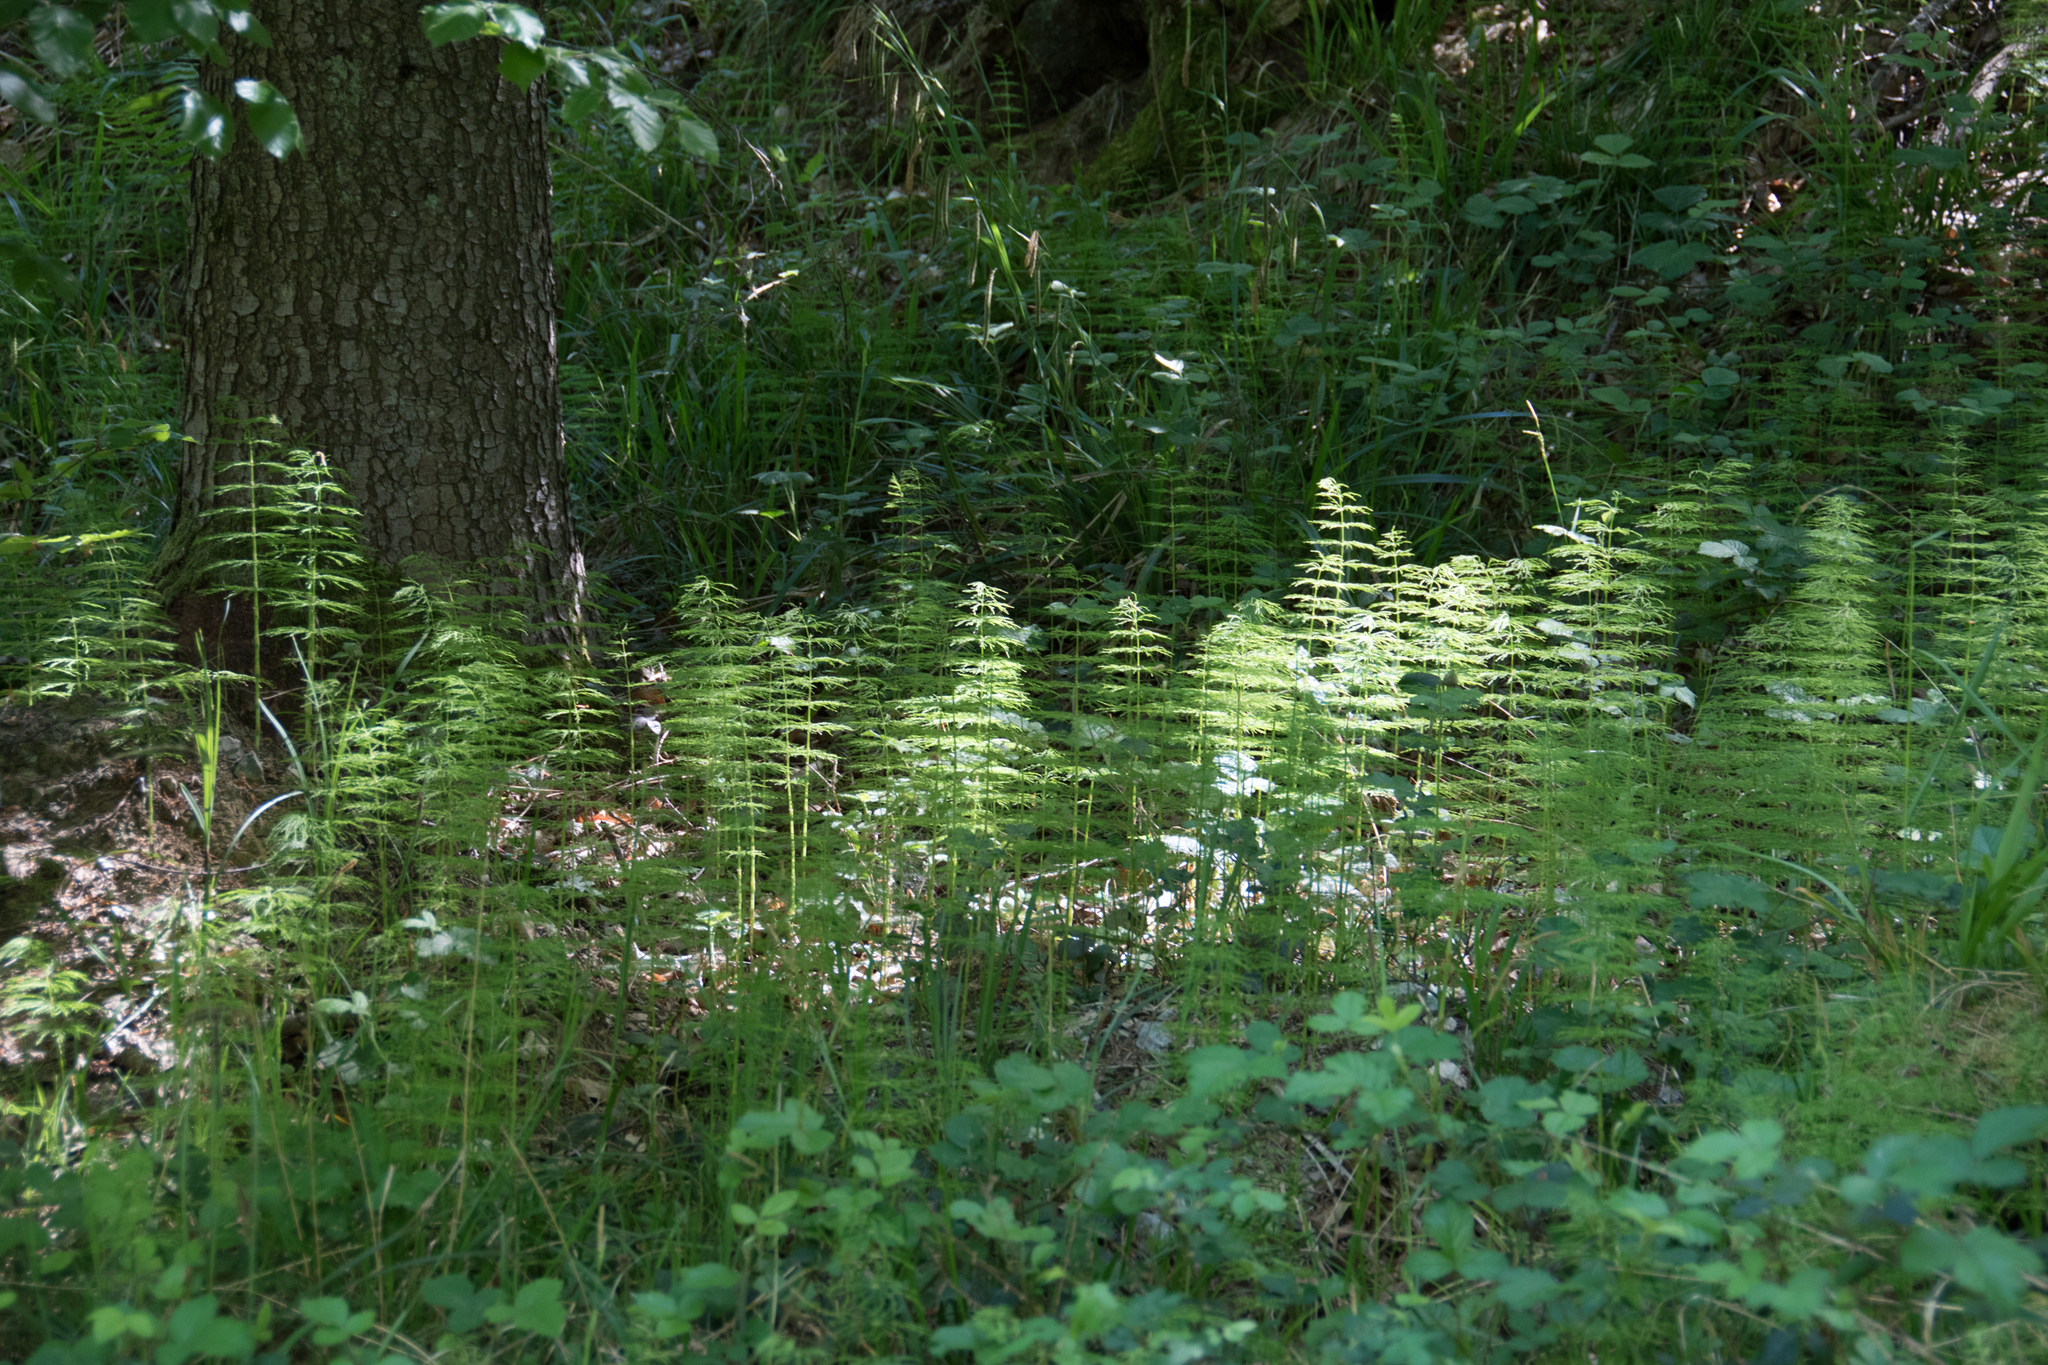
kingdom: Plantae
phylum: Tracheophyta
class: Polypodiopsida
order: Equisetales
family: Equisetaceae
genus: Equisetum
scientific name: Equisetum sylvaticum
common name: Wood horsetail
